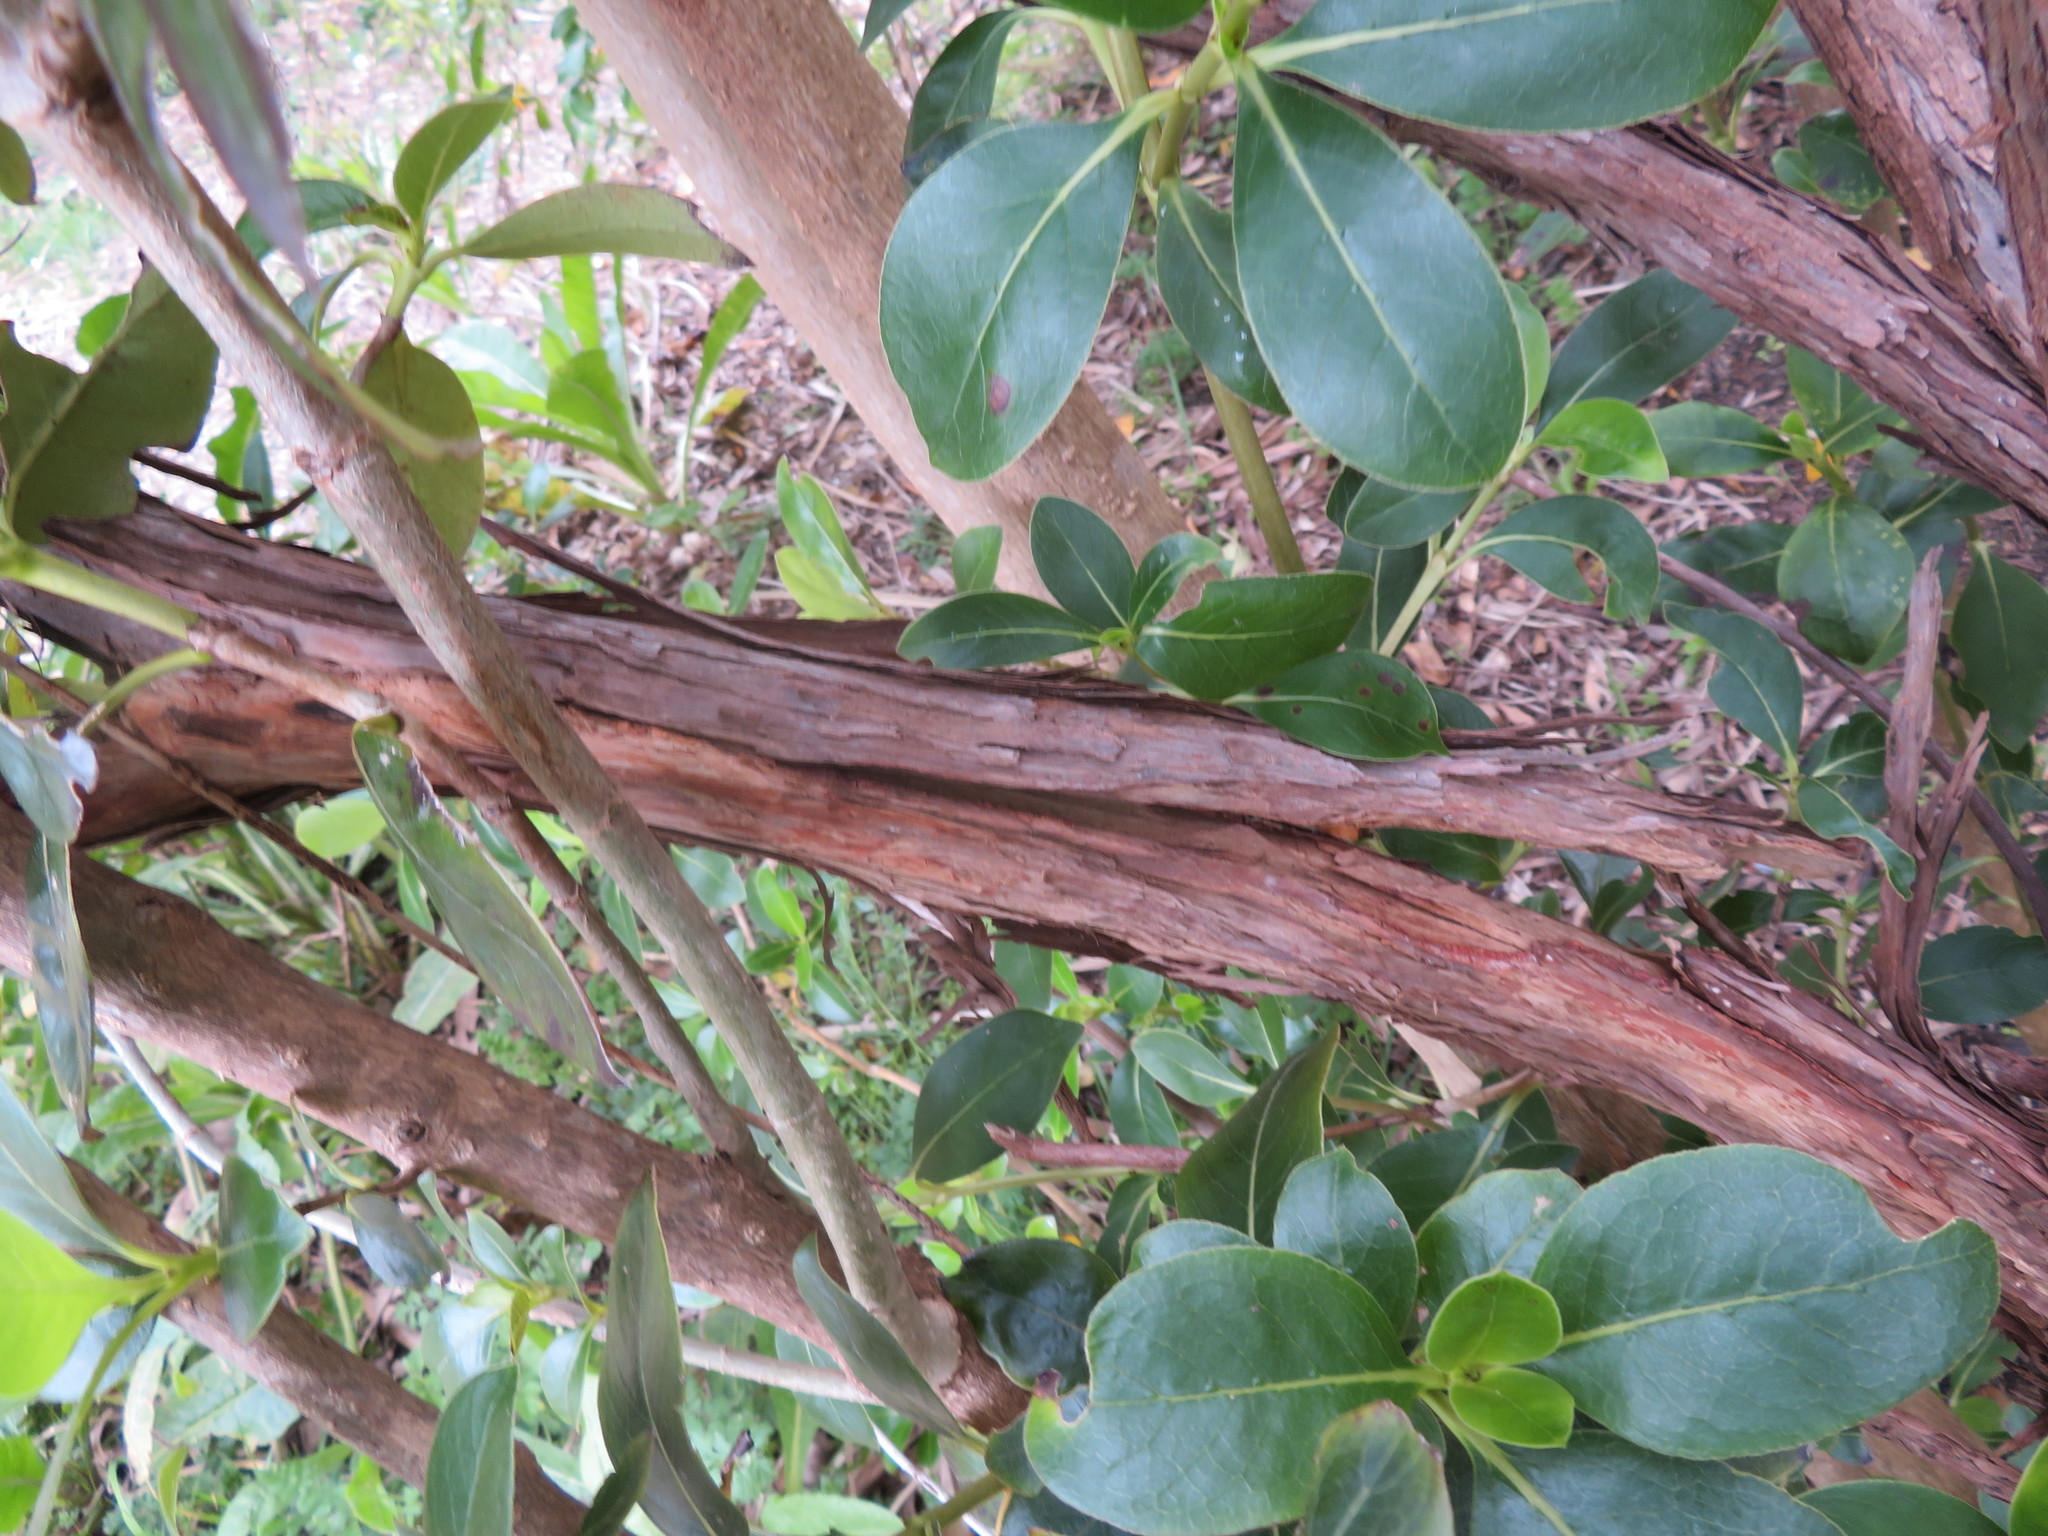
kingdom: Plantae
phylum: Tracheophyta
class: Magnoliopsida
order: Gentianales
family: Rubiaceae
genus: Coprosma
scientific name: Coprosma robusta
